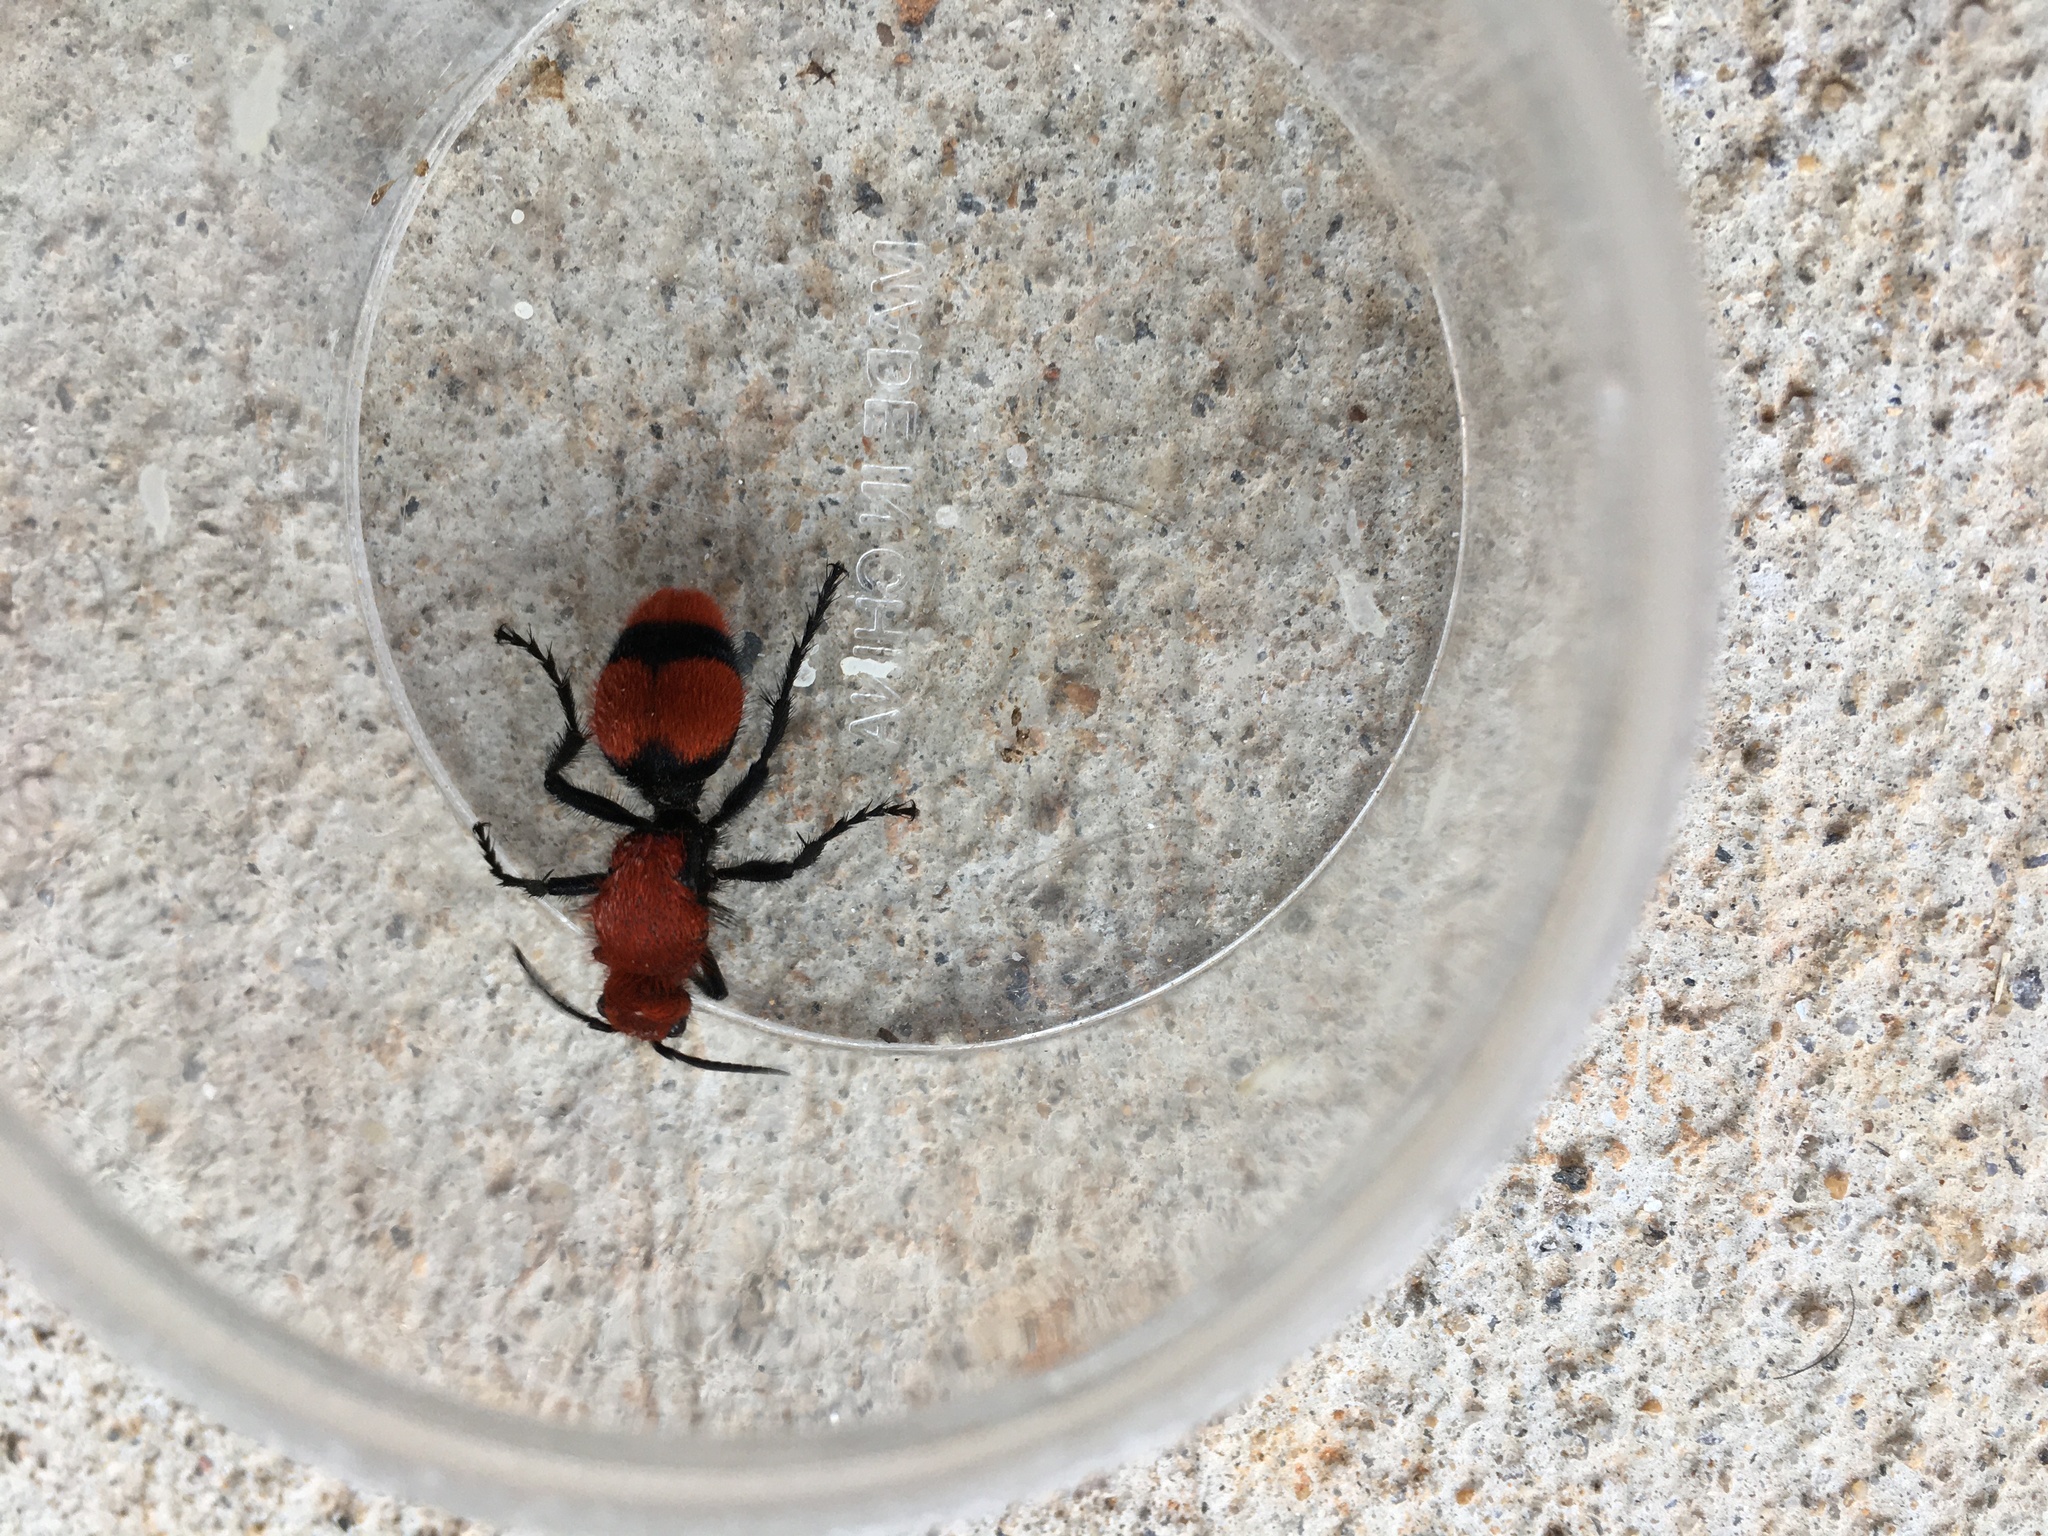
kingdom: Animalia
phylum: Arthropoda
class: Insecta
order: Hymenoptera
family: Mutillidae
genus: Dasymutilla
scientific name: Dasymutilla occidentalis
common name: Common eastern velvet ant
